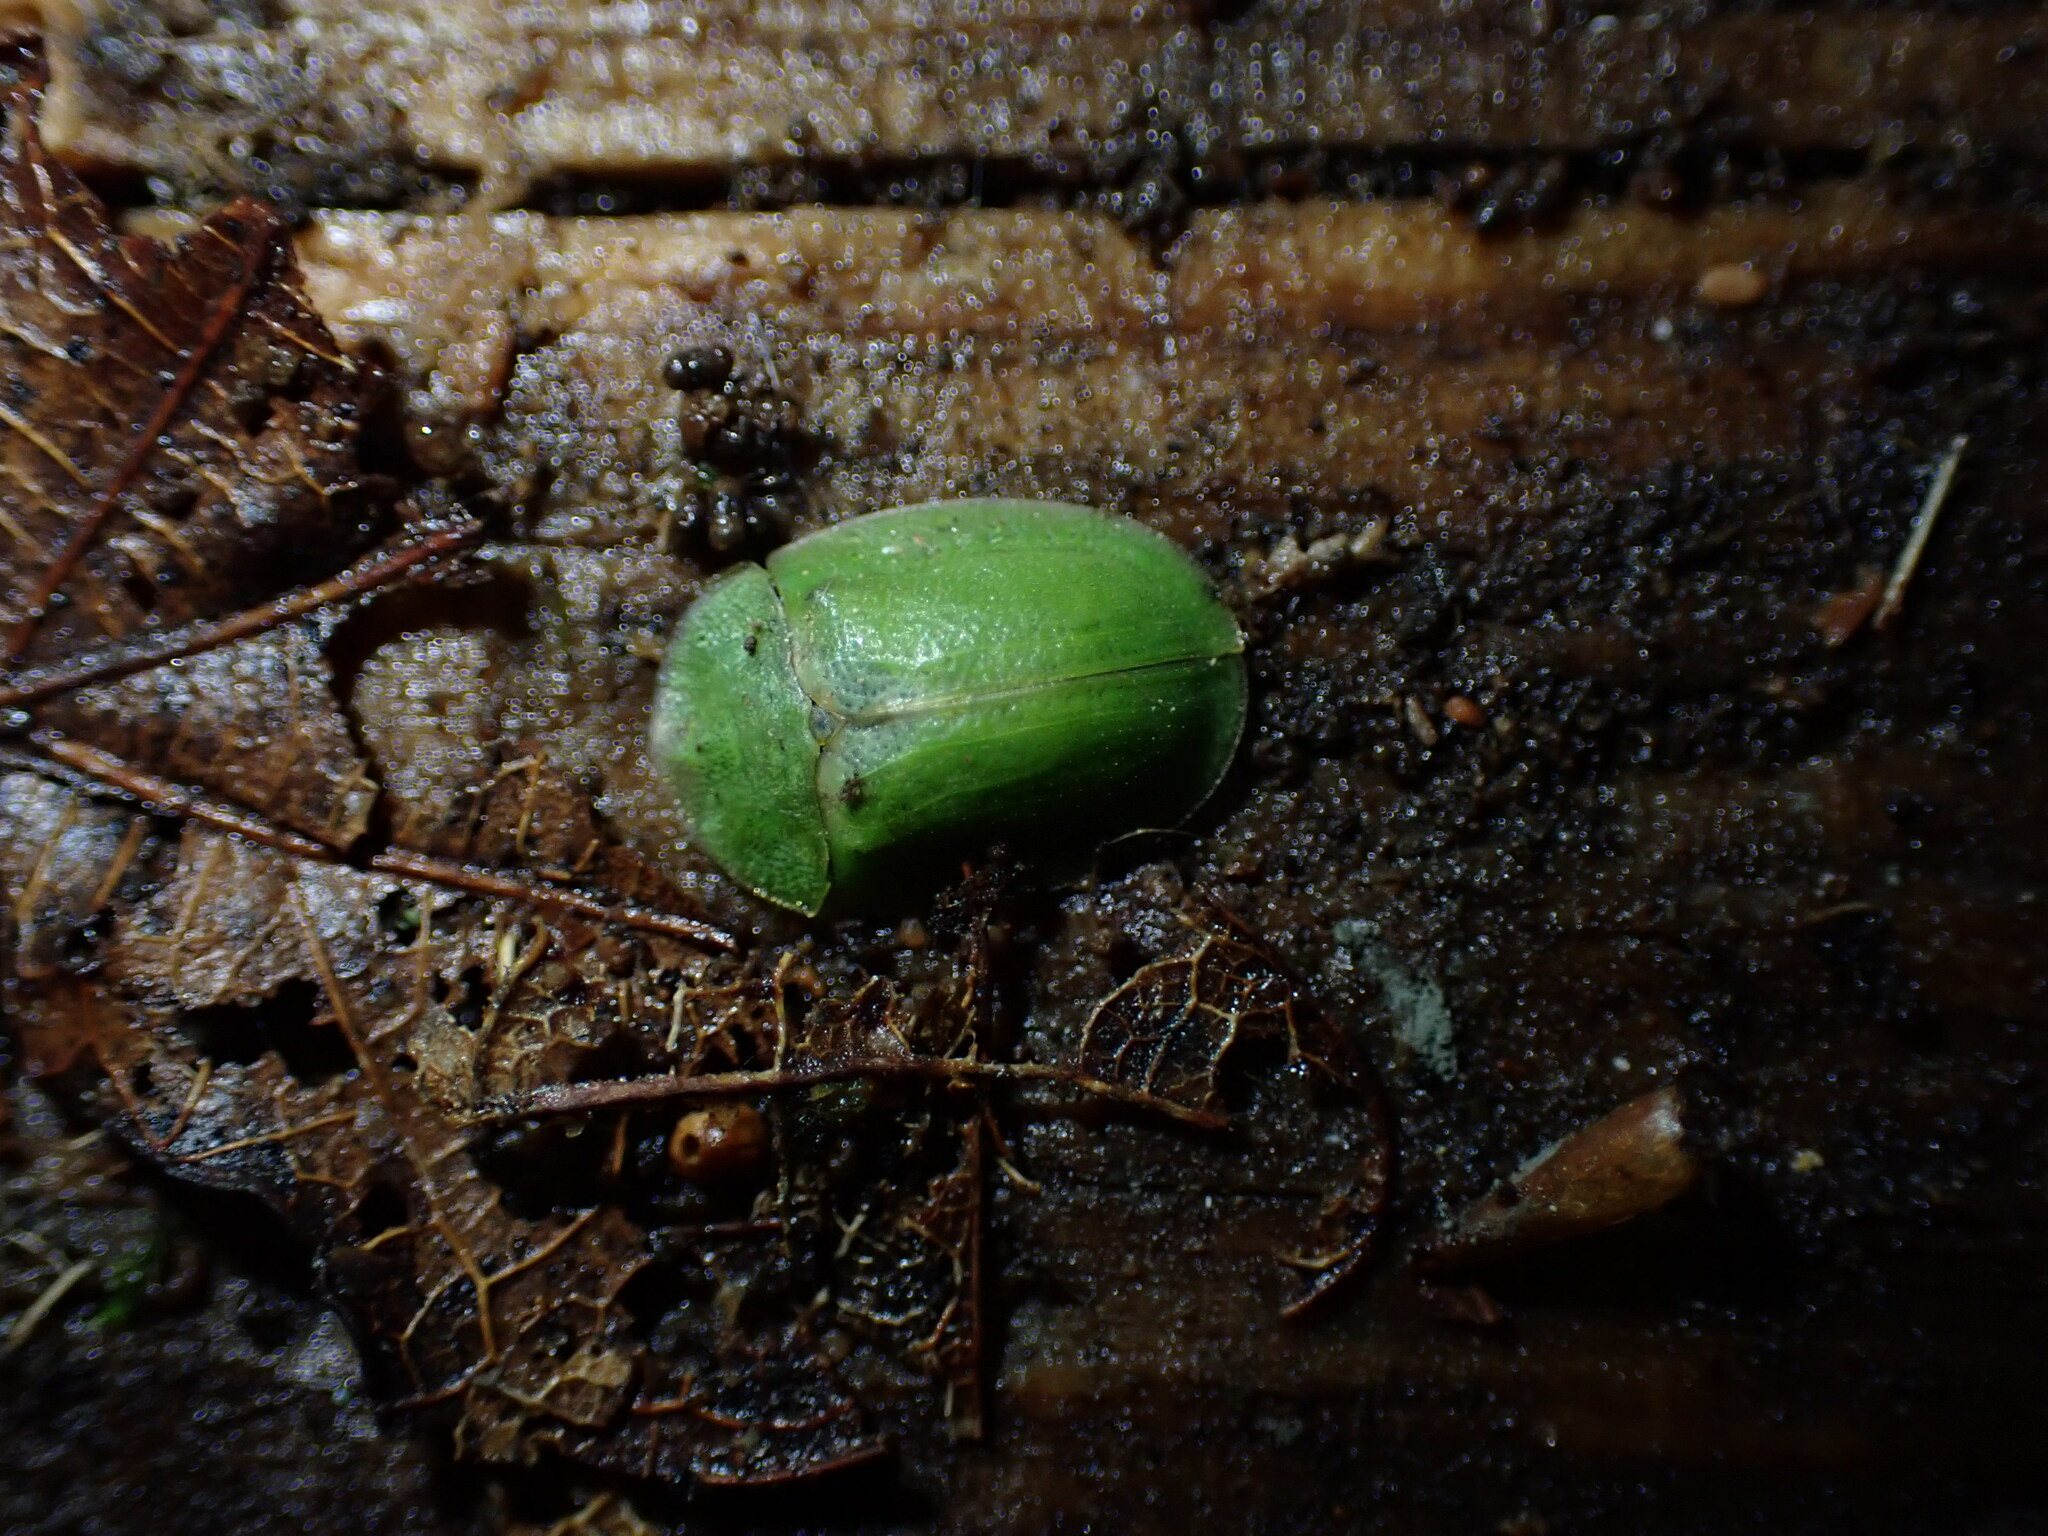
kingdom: Animalia
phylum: Arthropoda
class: Insecta
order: Coleoptera
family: Chrysomelidae
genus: Cassida
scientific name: Cassida rubiginosa
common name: Thistle tortoise beetle
